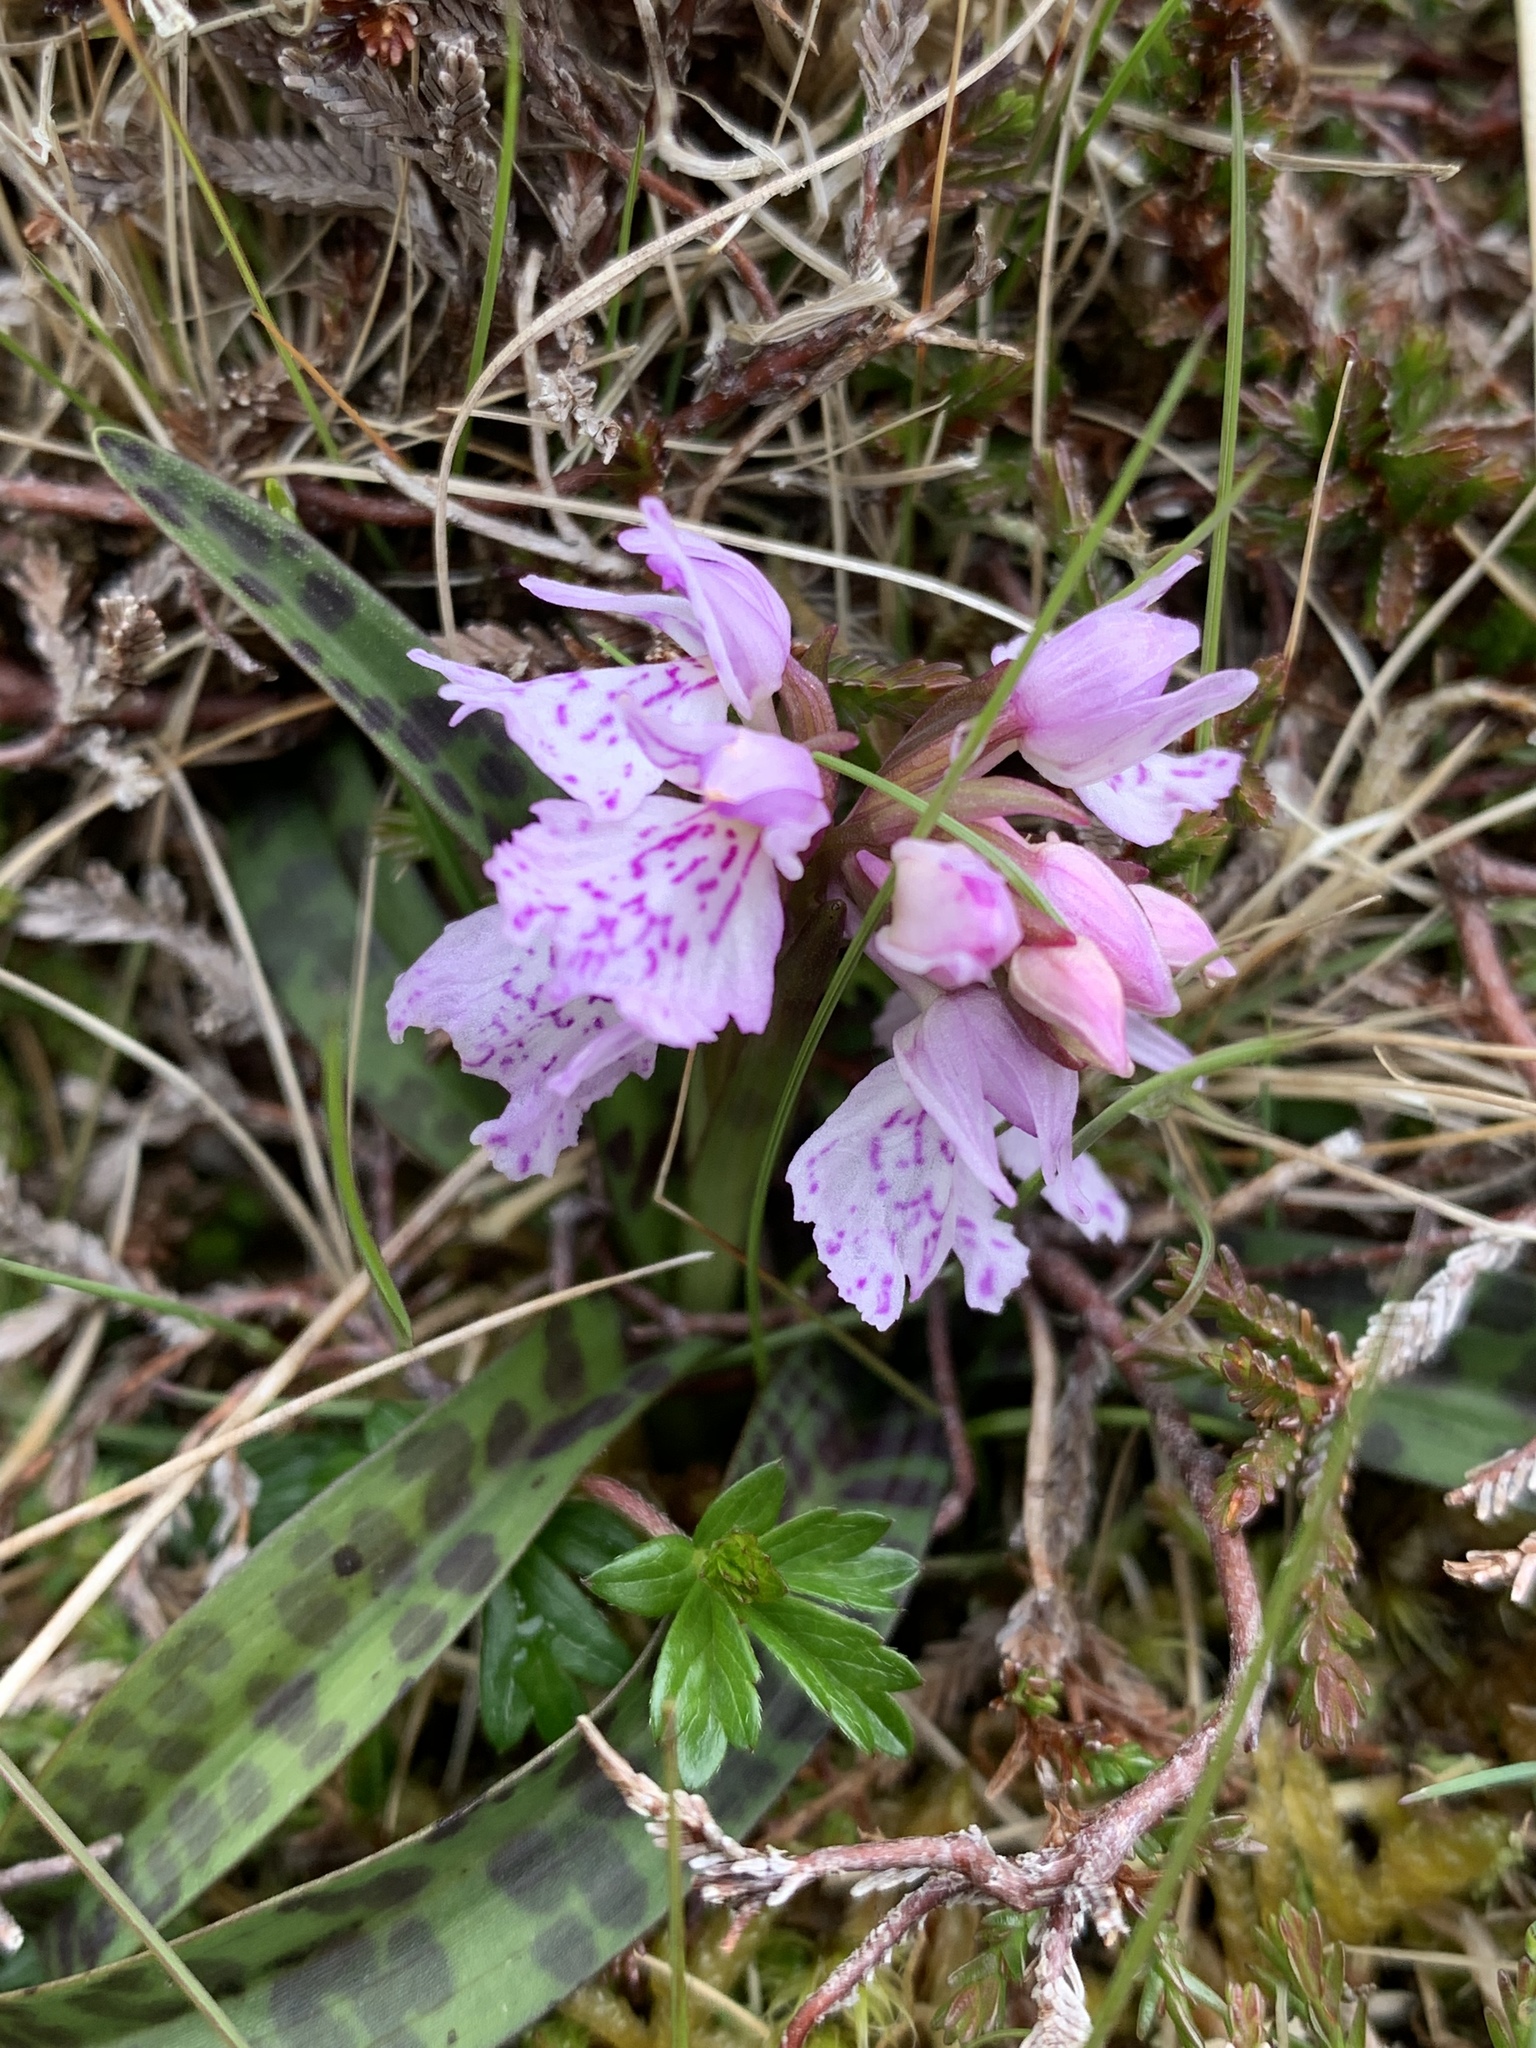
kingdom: Plantae
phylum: Tracheophyta
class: Liliopsida
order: Asparagales
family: Orchidaceae
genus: Dactylorhiza
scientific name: Dactylorhiza maculata
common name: Heath spotted-orchid
